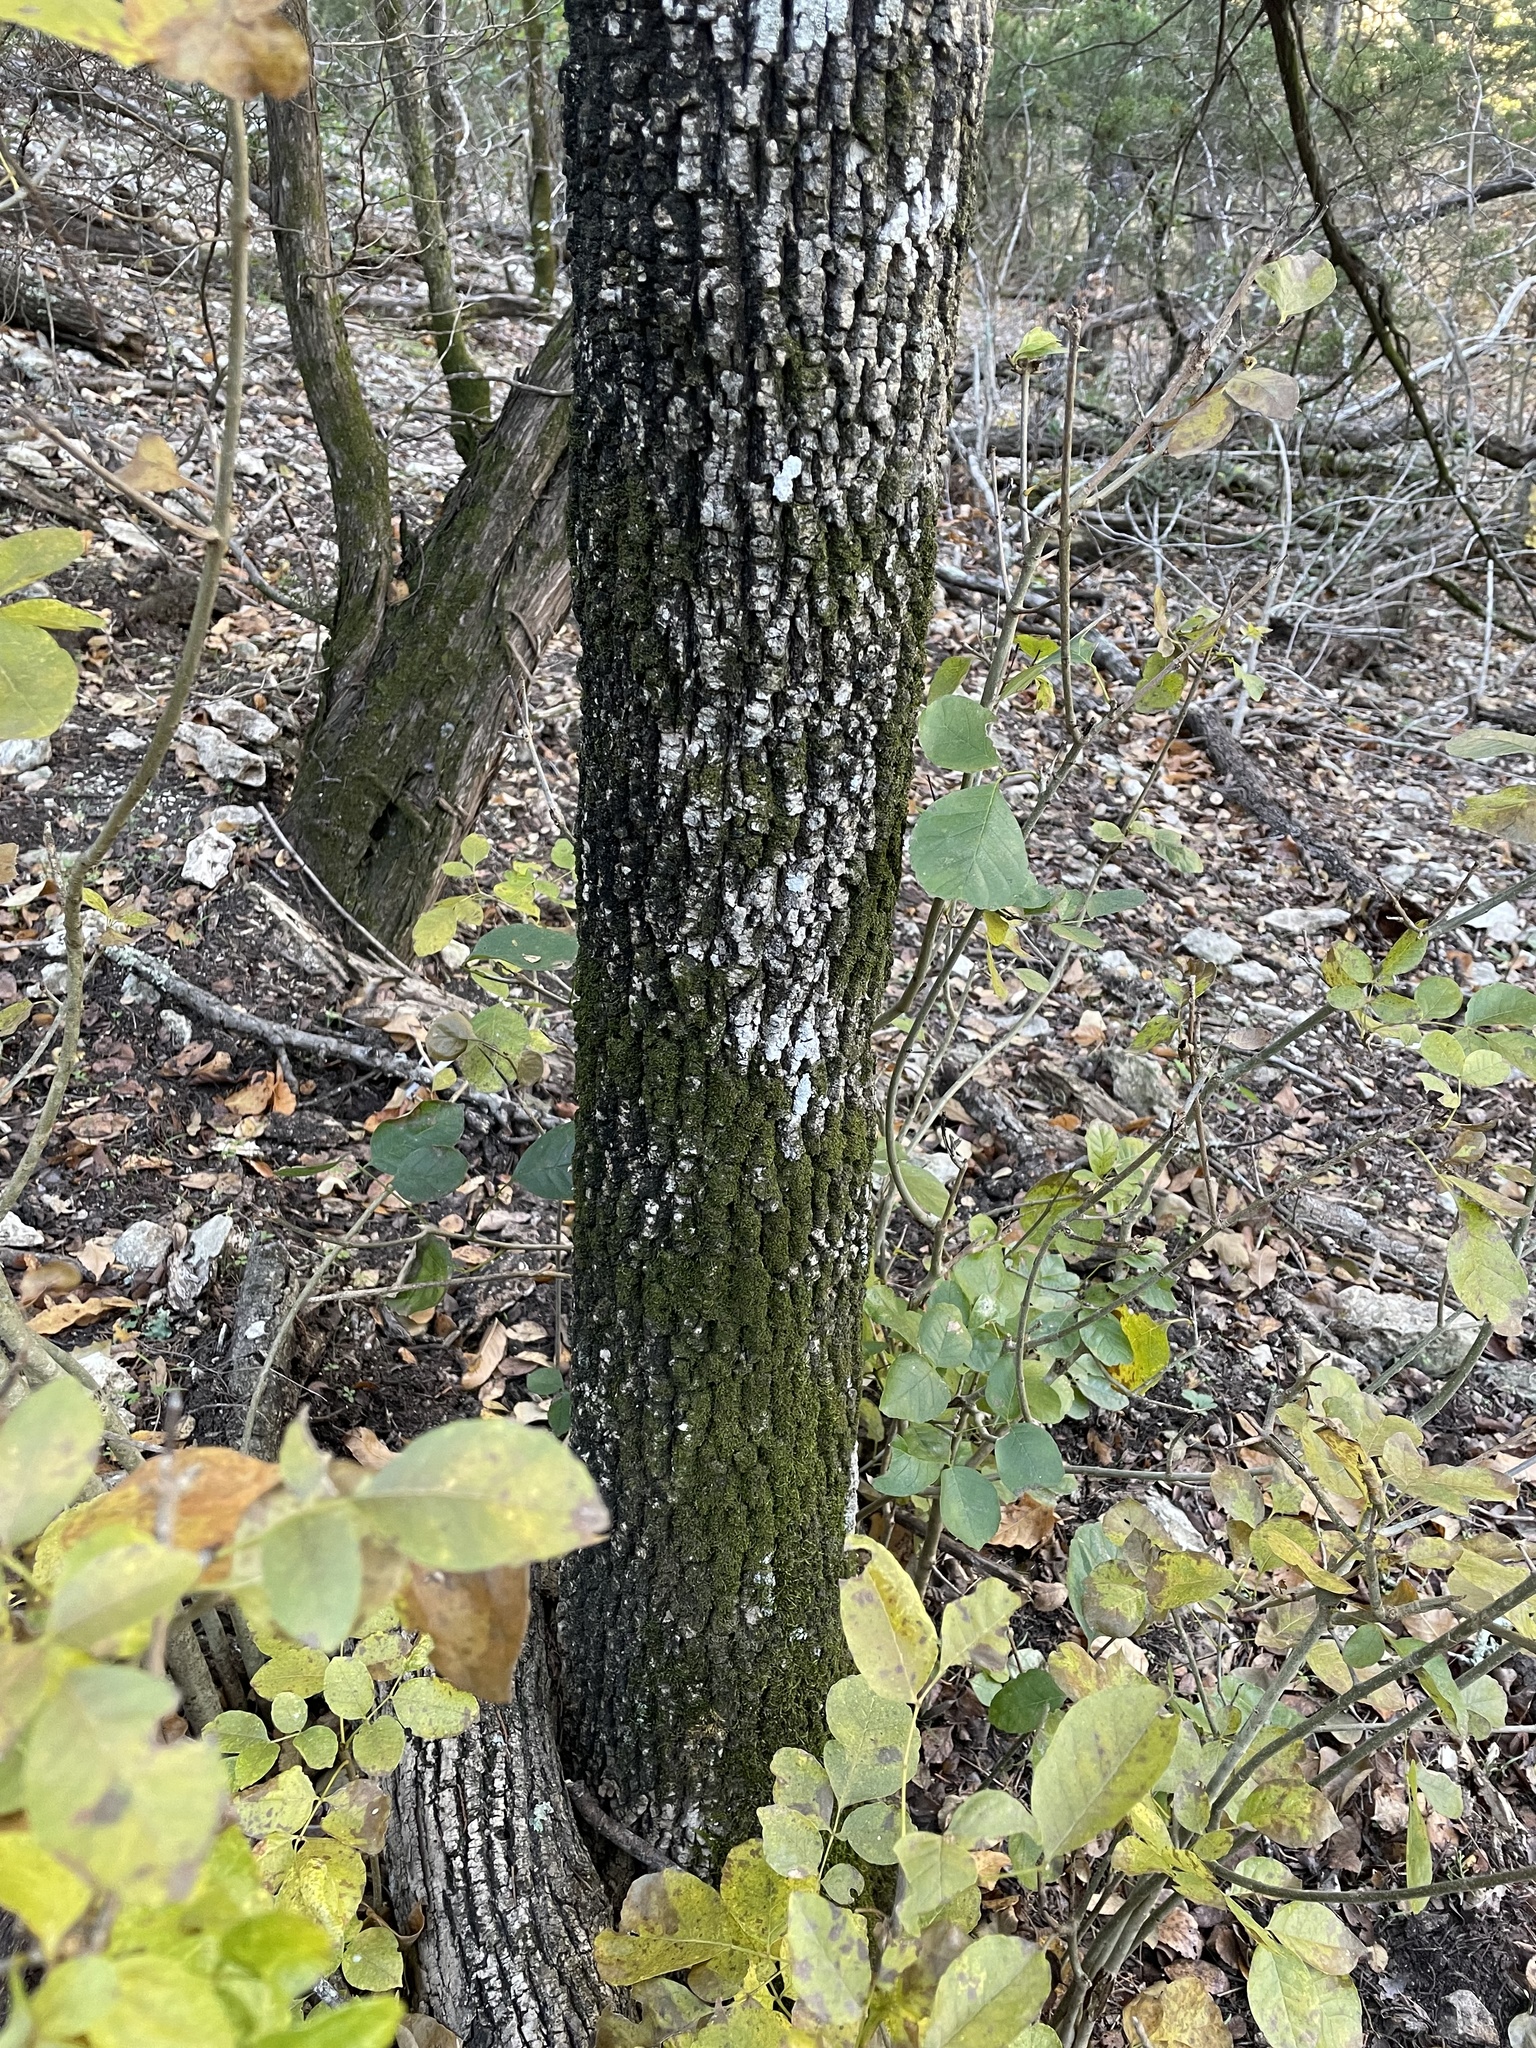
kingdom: Plantae
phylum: Tracheophyta
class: Magnoliopsida
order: Lamiales
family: Oleaceae
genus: Fraxinus
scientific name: Fraxinus albicans
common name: Texas ash
